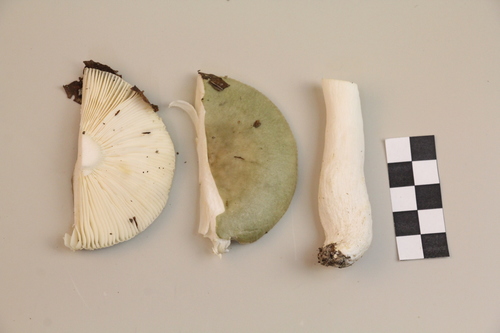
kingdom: Fungi
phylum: Basidiomycota
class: Agaricomycetes
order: Russulales
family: Russulaceae
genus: Russula
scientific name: Russula aeruginea
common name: Green brittlegill
